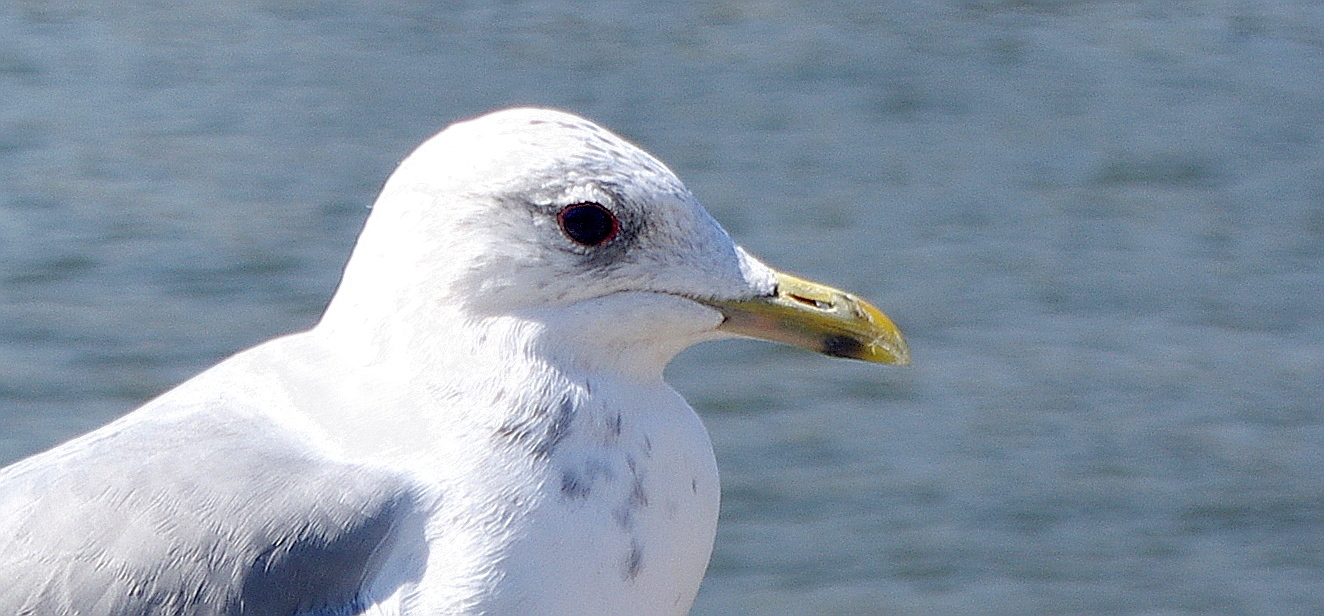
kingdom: Animalia
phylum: Chordata
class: Aves
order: Charadriiformes
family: Laridae
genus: Larus
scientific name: Larus canus
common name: Mew gull
